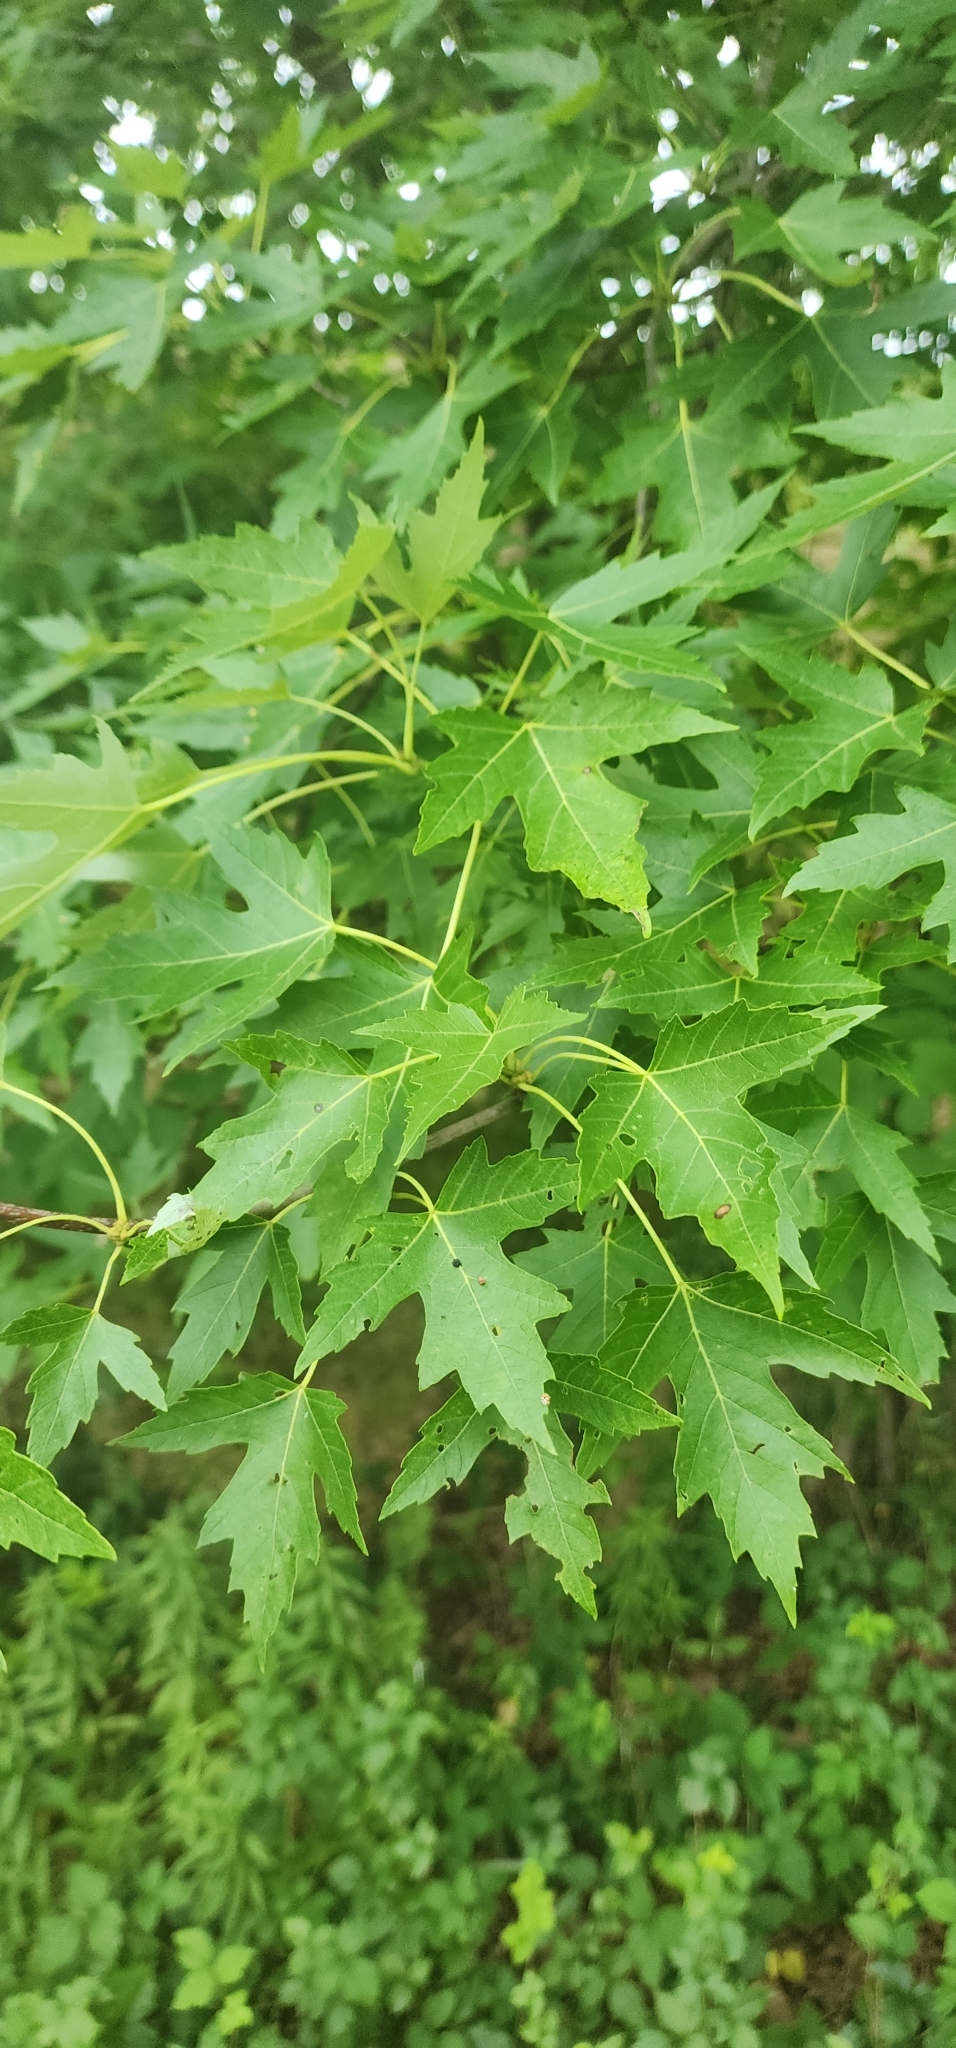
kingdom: Plantae
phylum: Tracheophyta
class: Magnoliopsida
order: Sapindales
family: Sapindaceae
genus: Acer
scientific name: Acer saccharinum
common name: Silver maple
